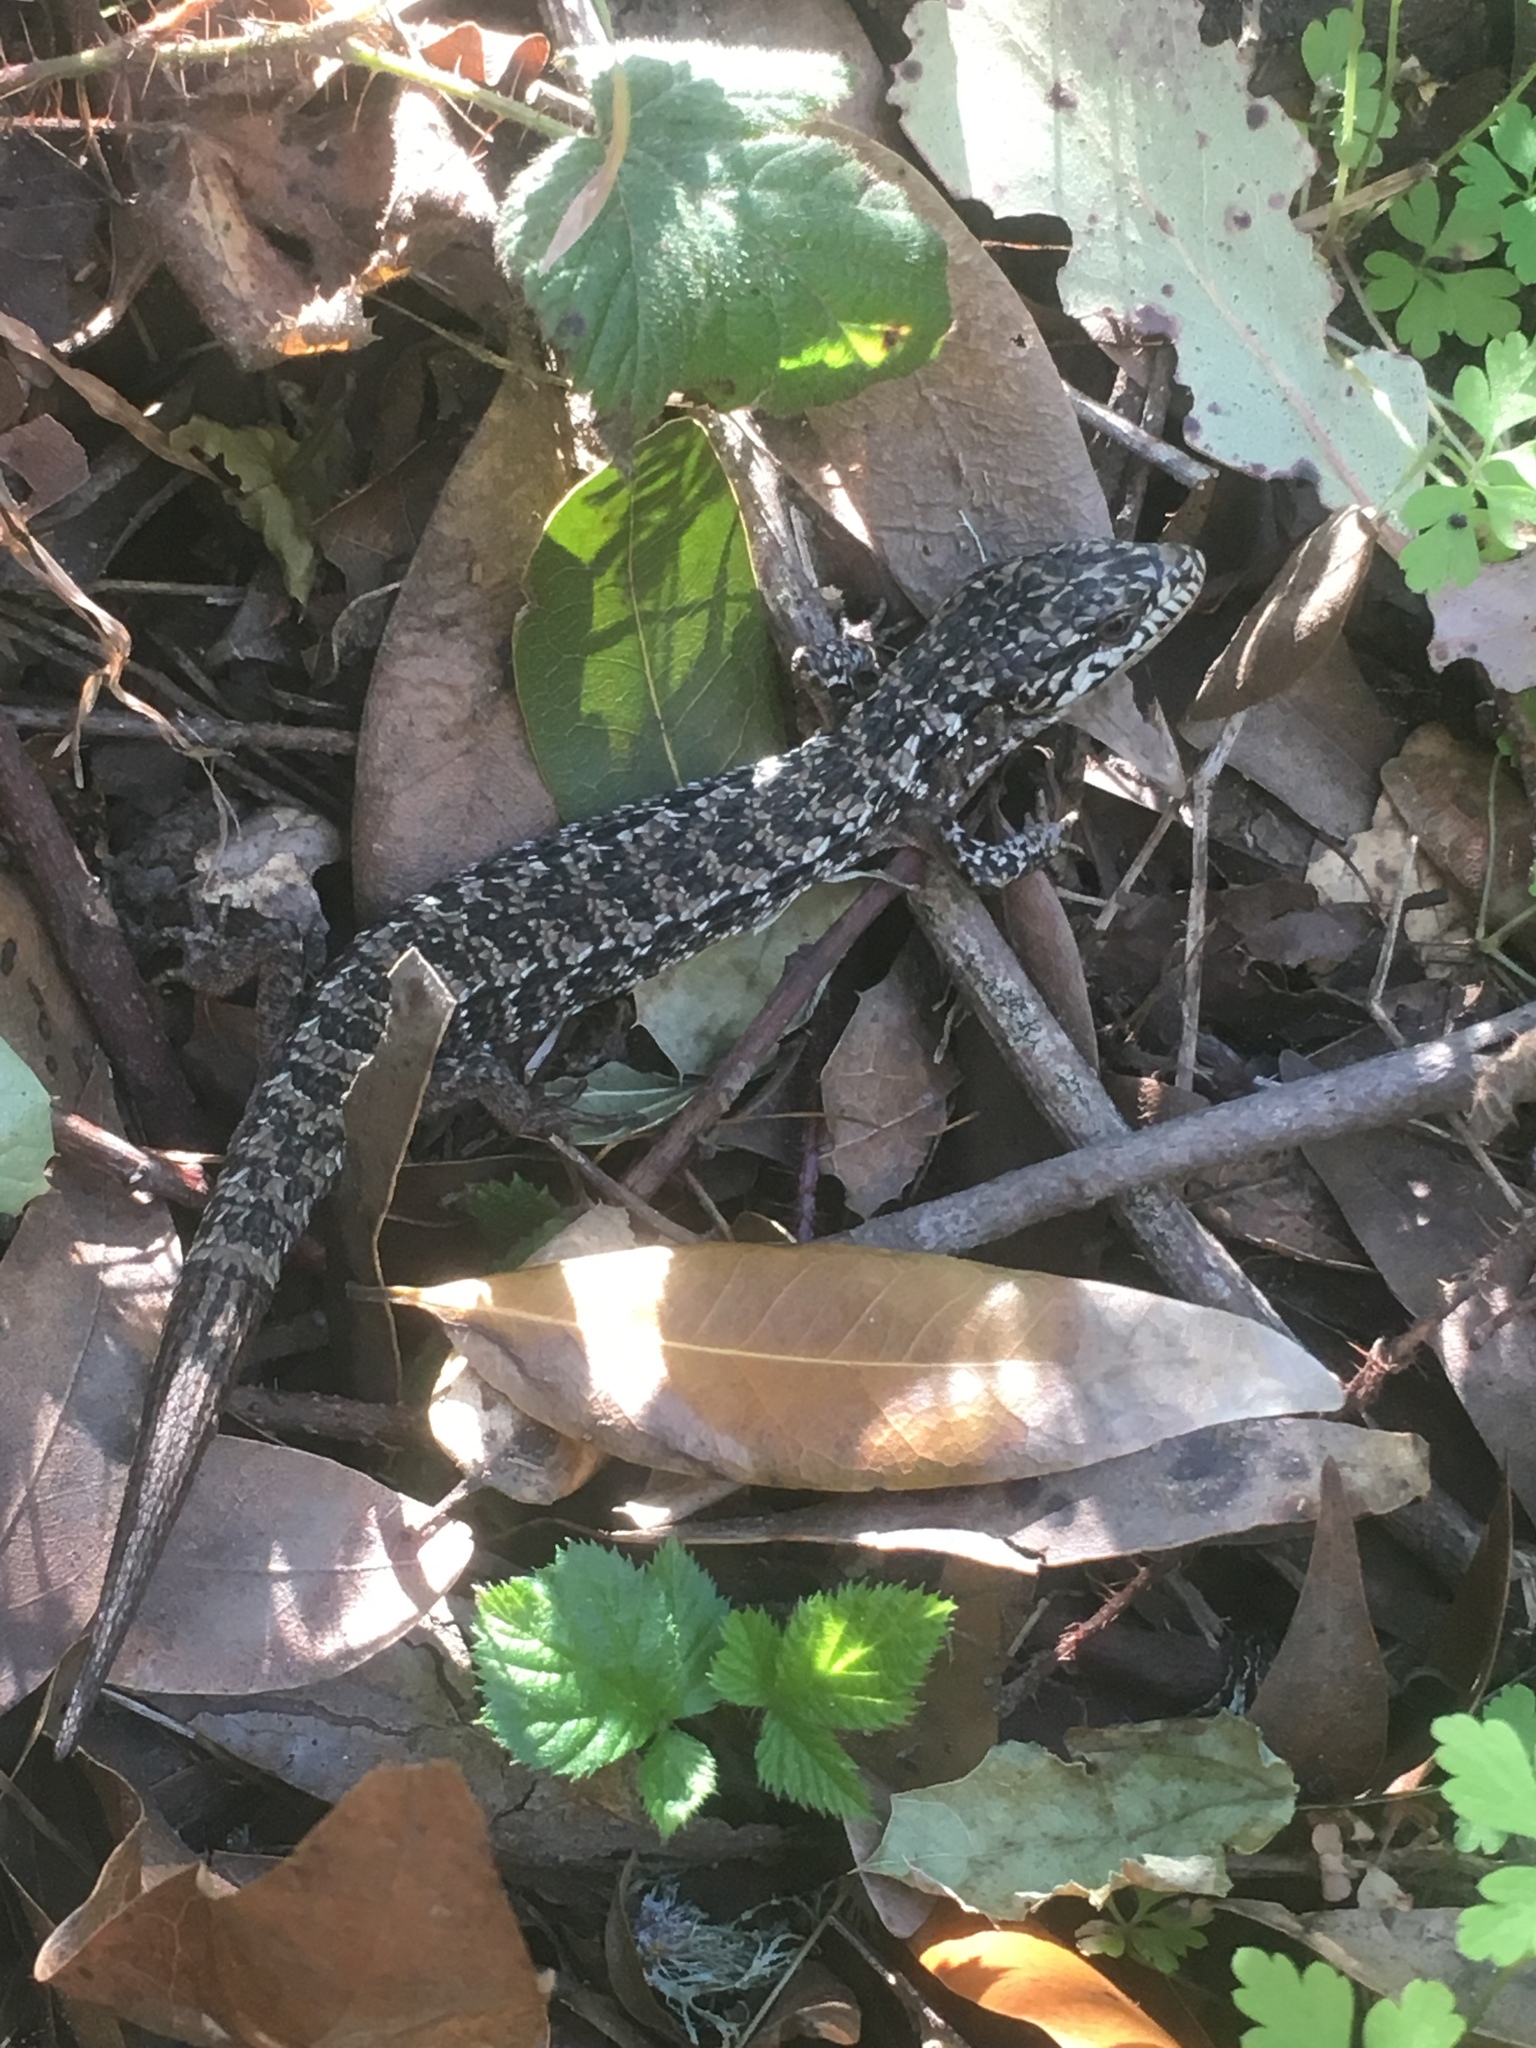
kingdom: Animalia
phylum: Chordata
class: Squamata
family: Anguidae
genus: Elgaria
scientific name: Elgaria coerulea
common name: Northern alligator lizard
